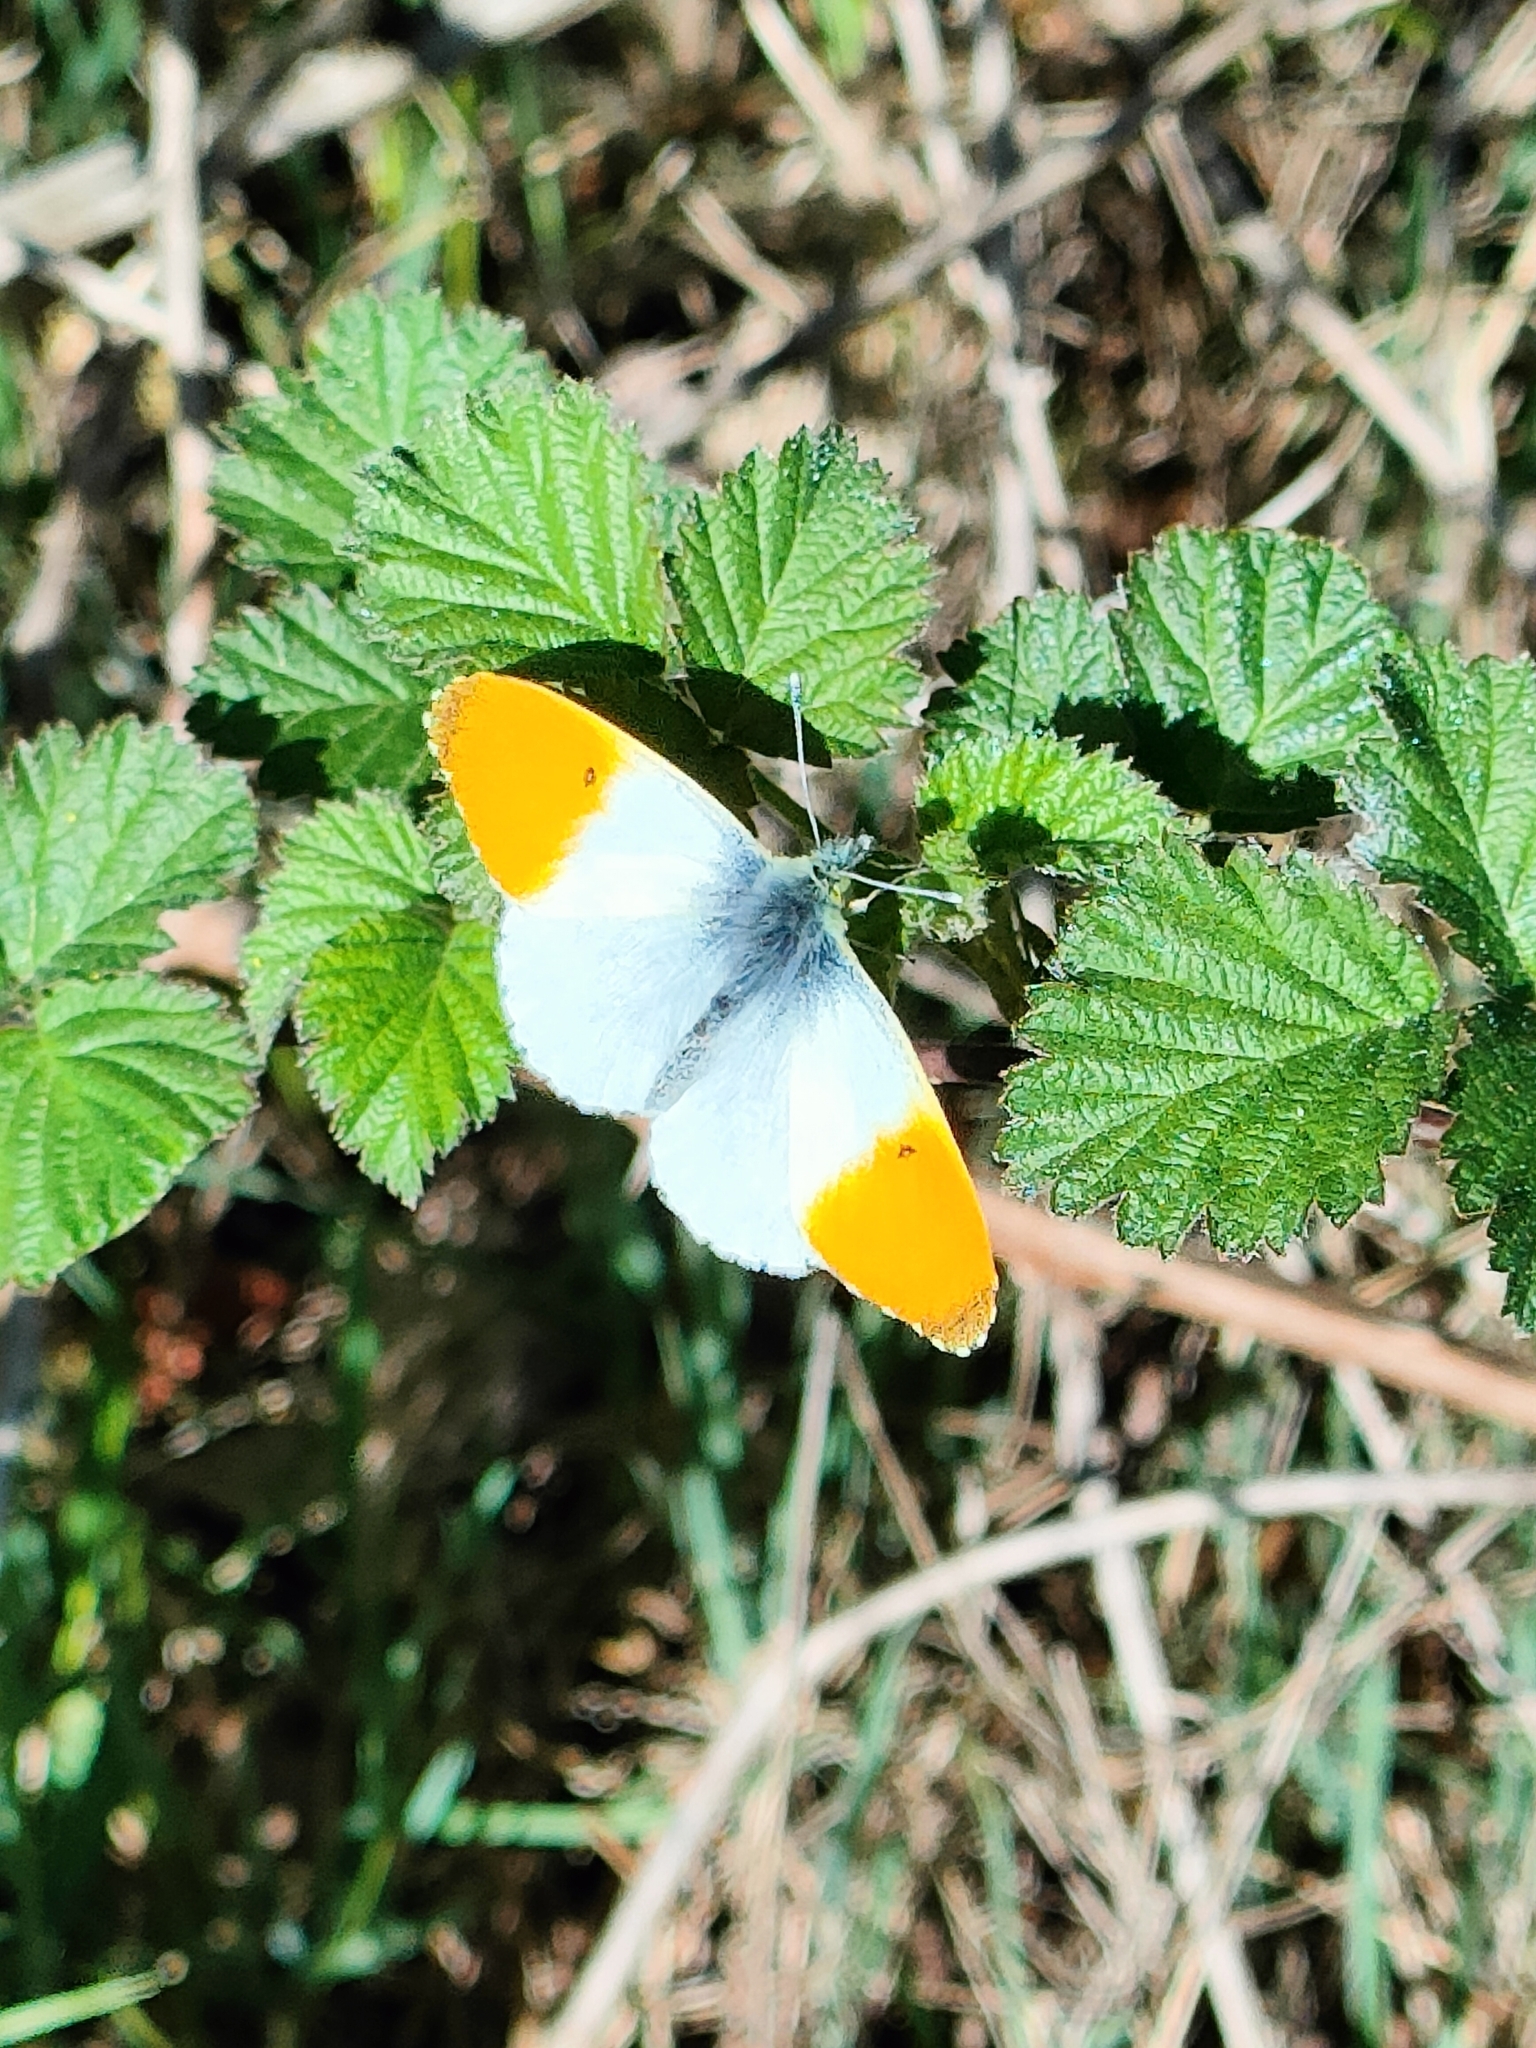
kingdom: Animalia
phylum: Arthropoda
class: Insecta
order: Lepidoptera
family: Pieridae
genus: Anthocharis
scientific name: Anthocharis cardamines
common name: Orange-tip
